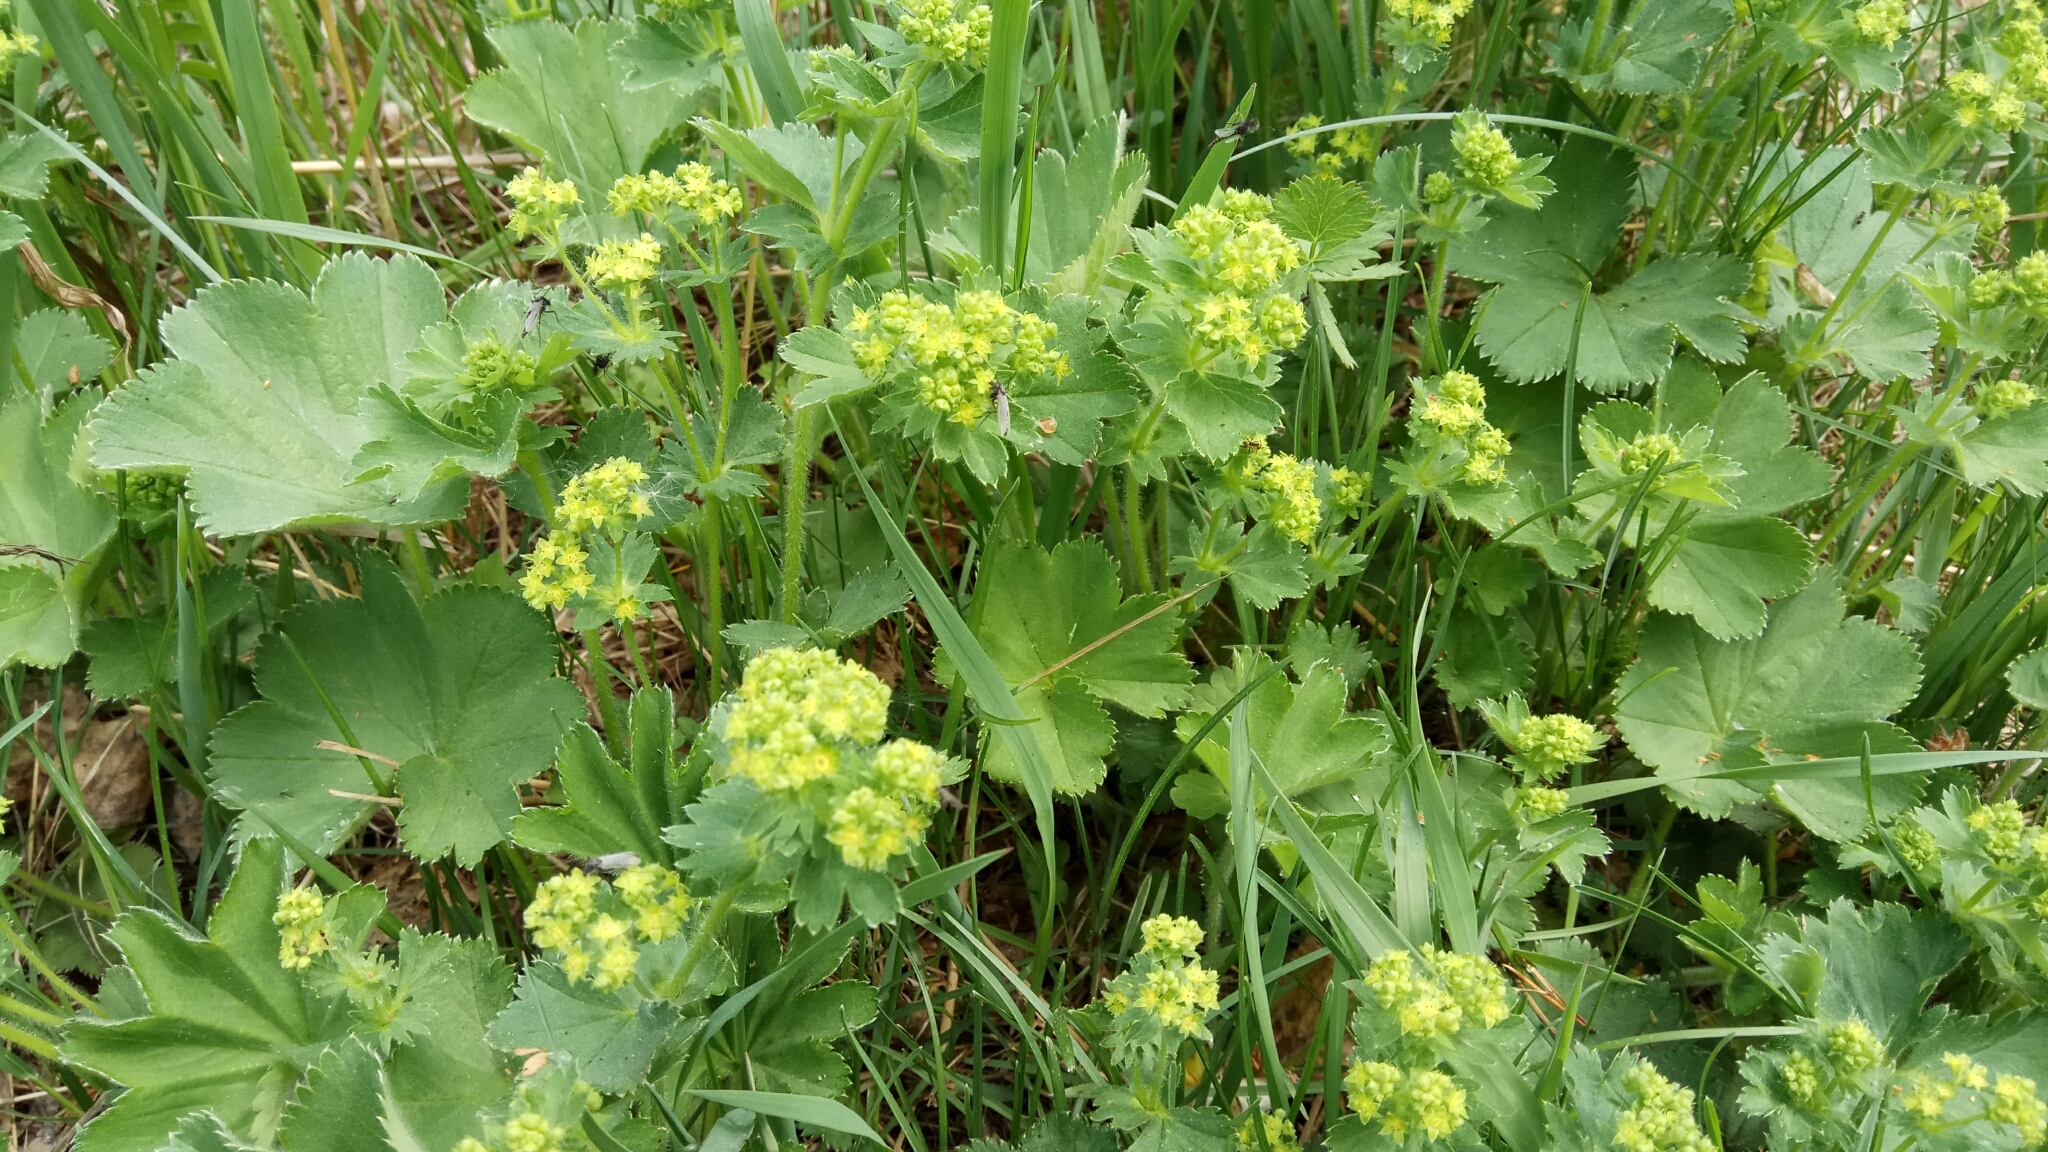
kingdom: Plantae
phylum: Tracheophyta
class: Magnoliopsida
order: Rosales
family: Rosaceae
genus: Alchemilla
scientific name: Alchemilla
